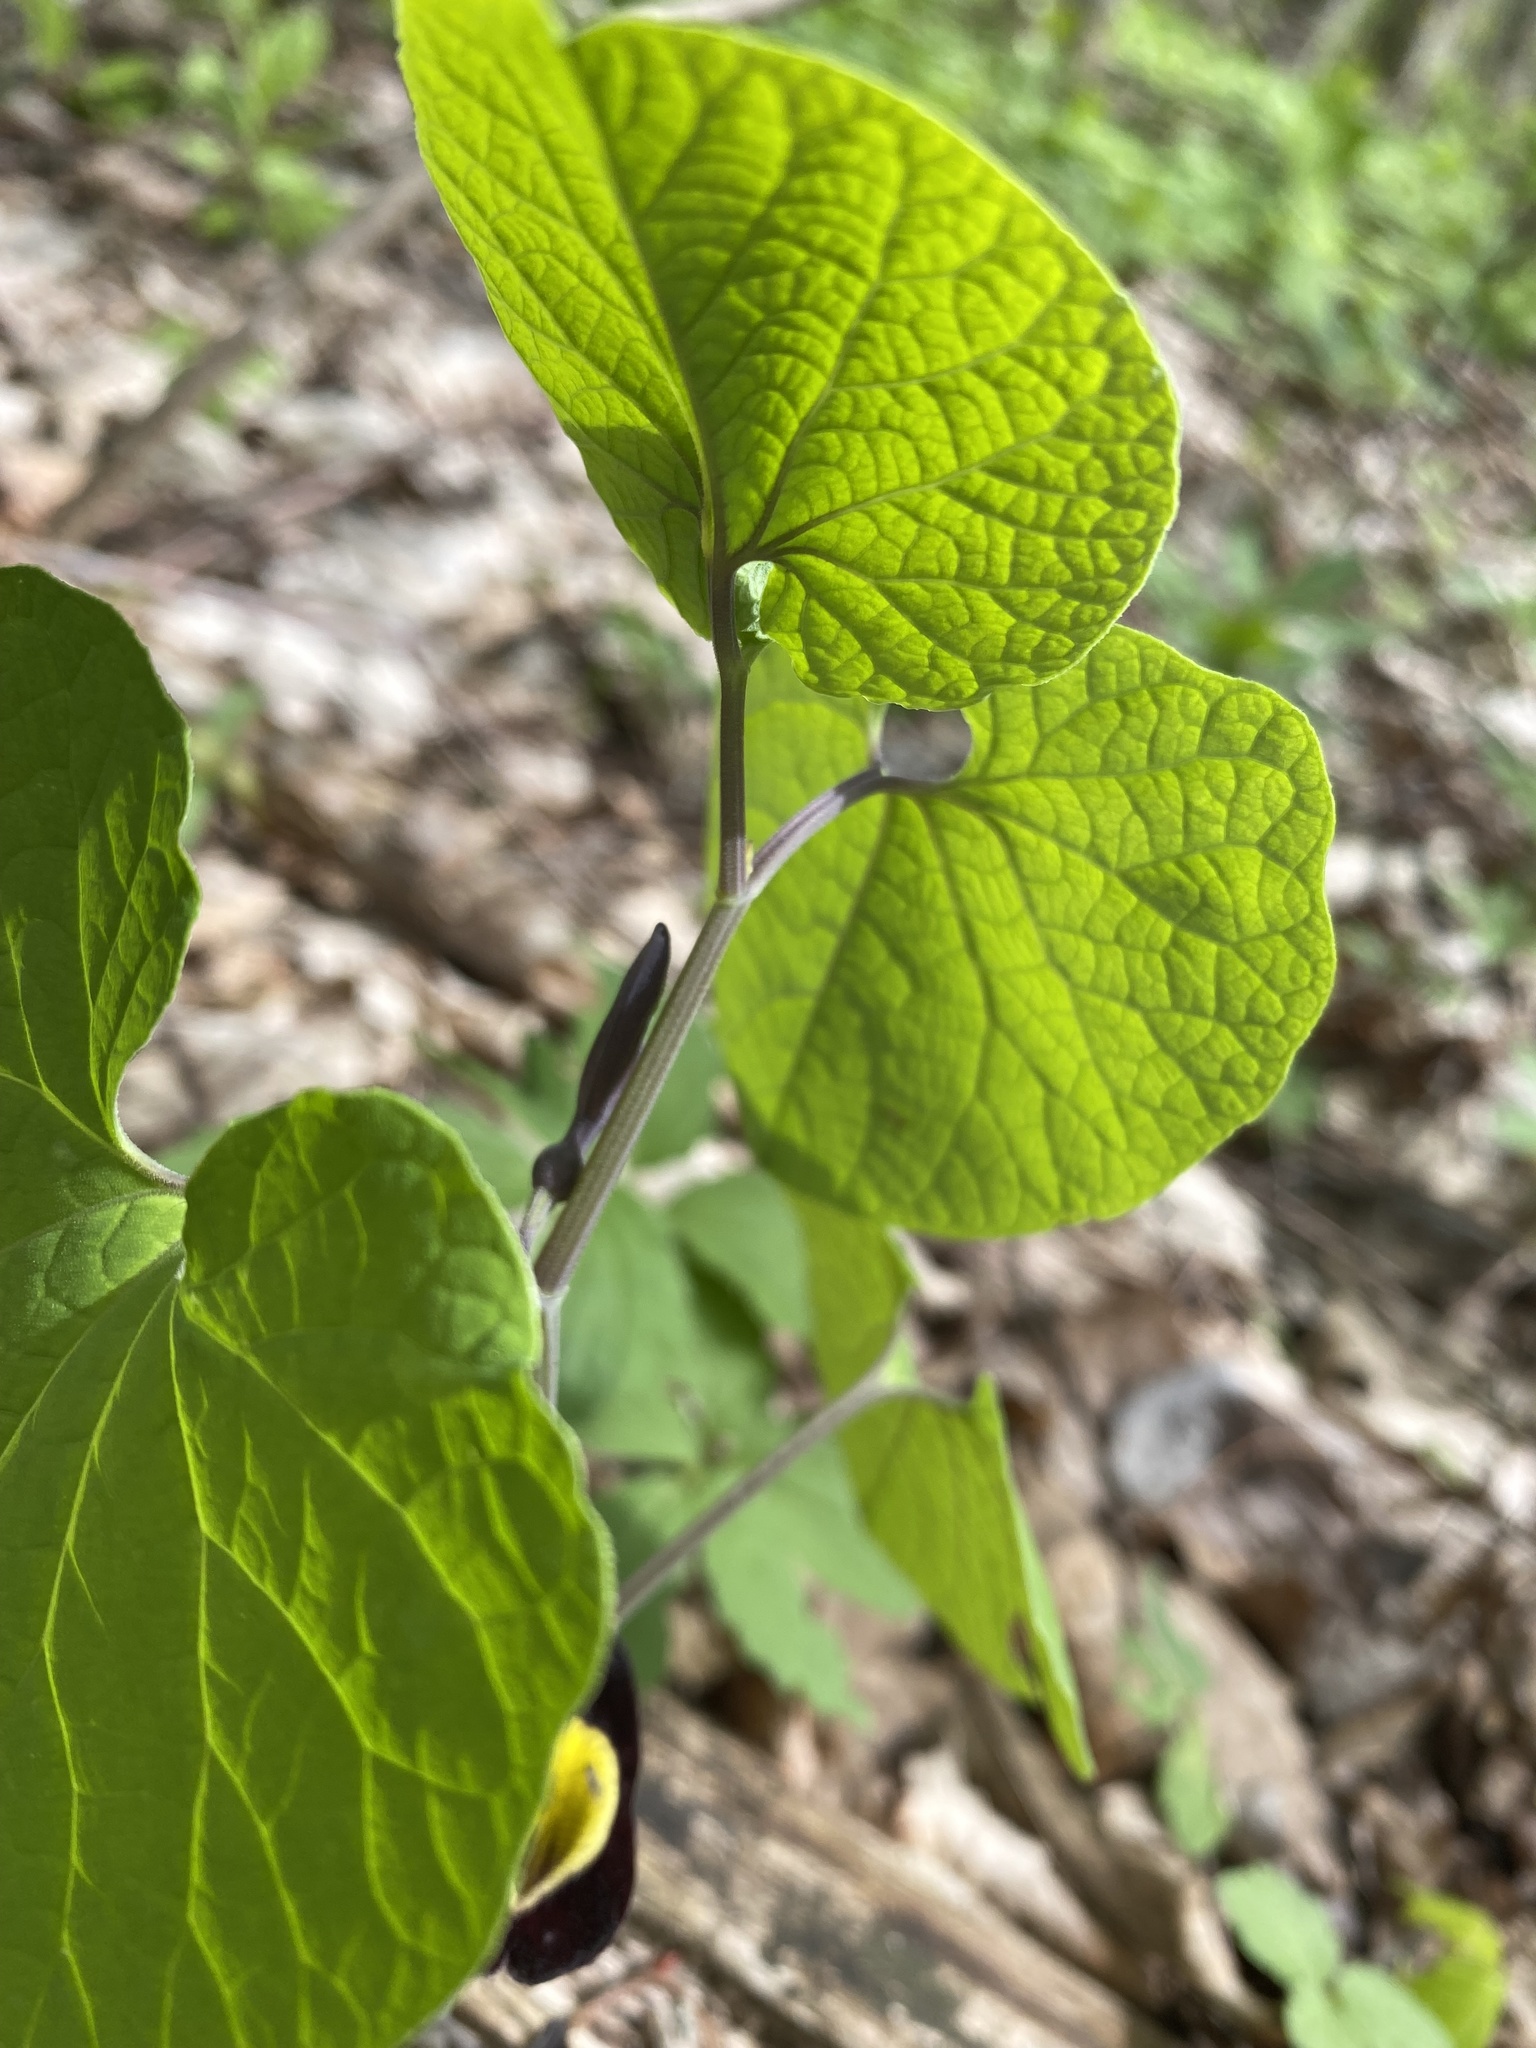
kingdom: Plantae
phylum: Tracheophyta
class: Magnoliopsida
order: Piperales
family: Aristolochiaceae
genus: Aristolochia
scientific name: Aristolochia steupii
